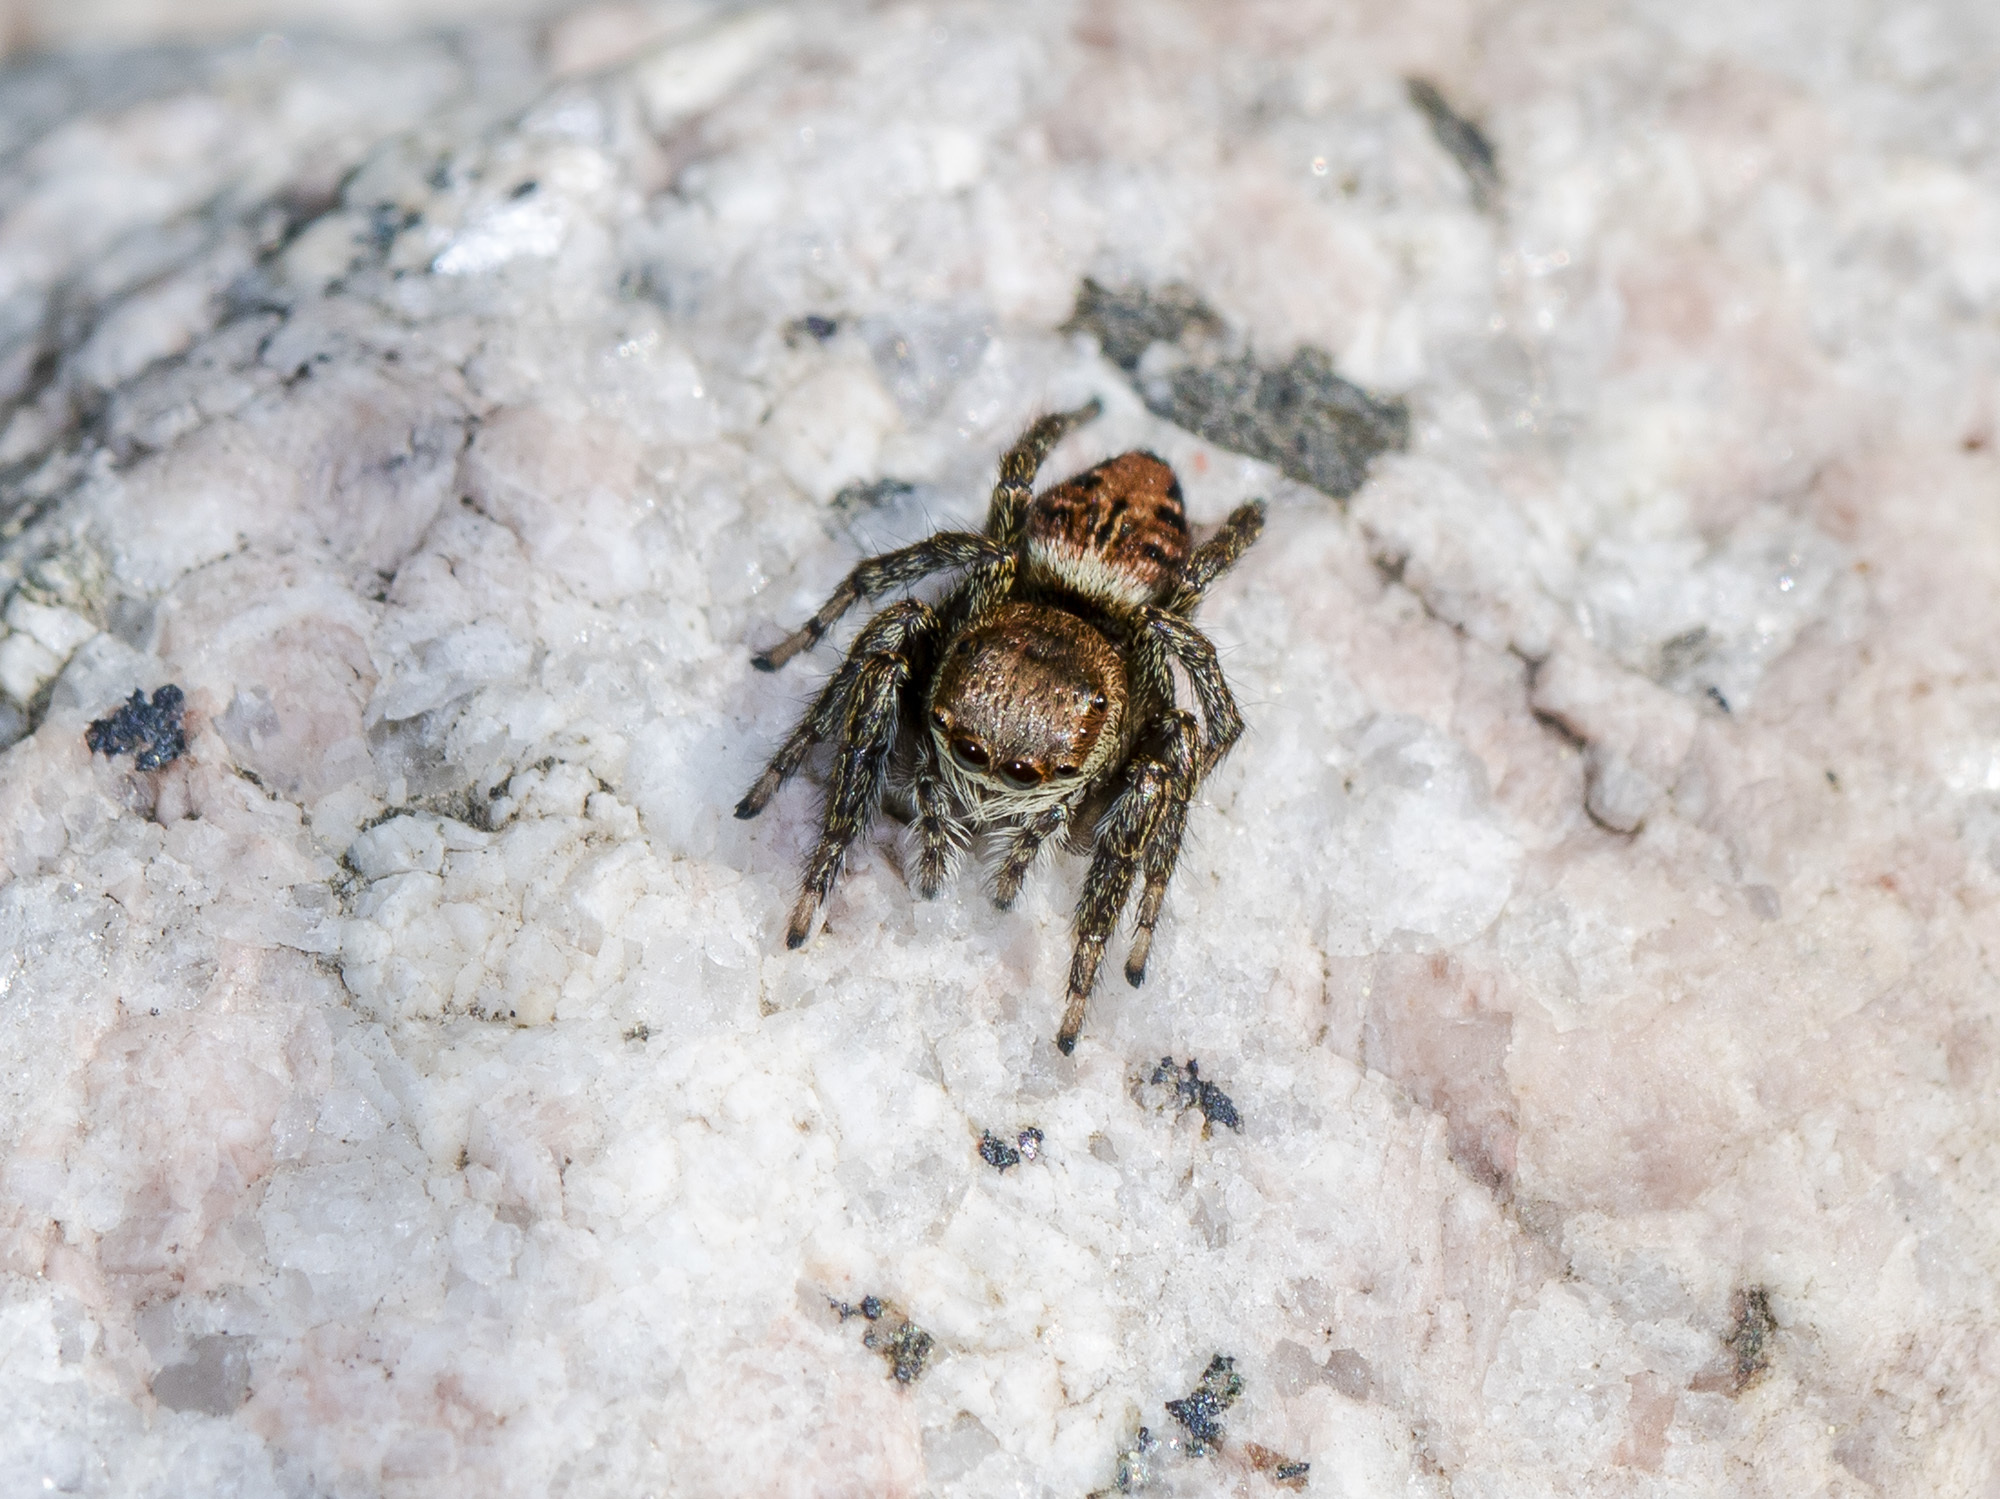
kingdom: Animalia
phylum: Arthropoda
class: Arachnida
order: Araneae
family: Salticidae
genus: Evarcha
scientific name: Evarcha arcuata
